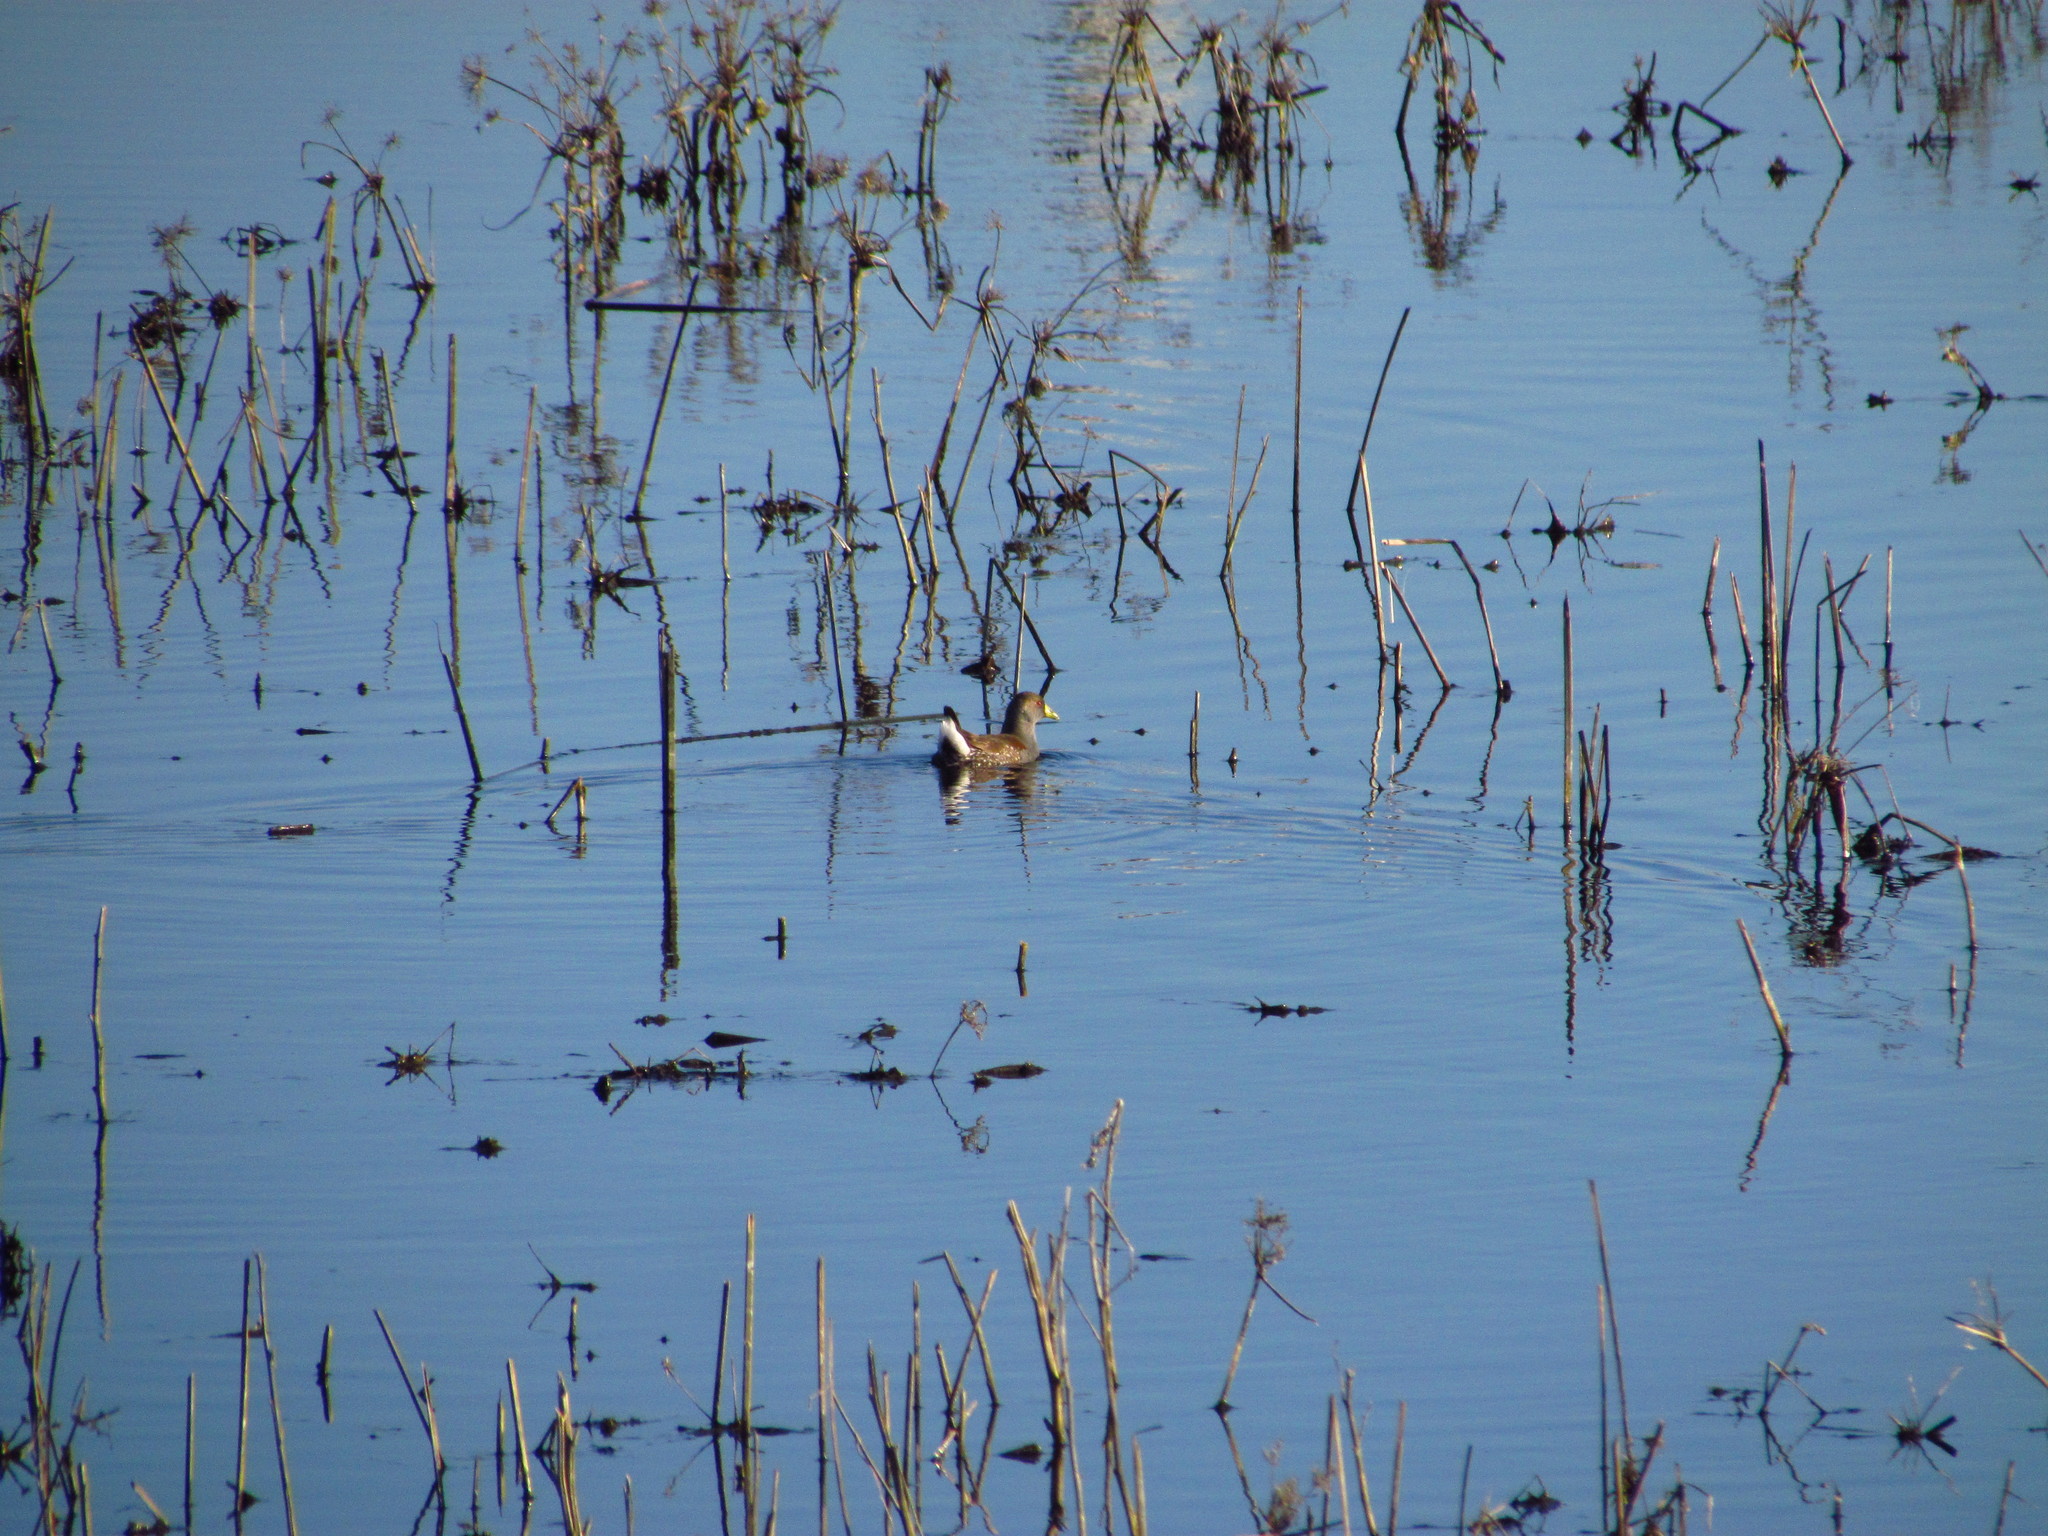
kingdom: Animalia
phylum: Chordata
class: Aves
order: Gruiformes
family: Rallidae
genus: Gallinula
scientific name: Gallinula melanops
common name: Spot-flanked gallinule
